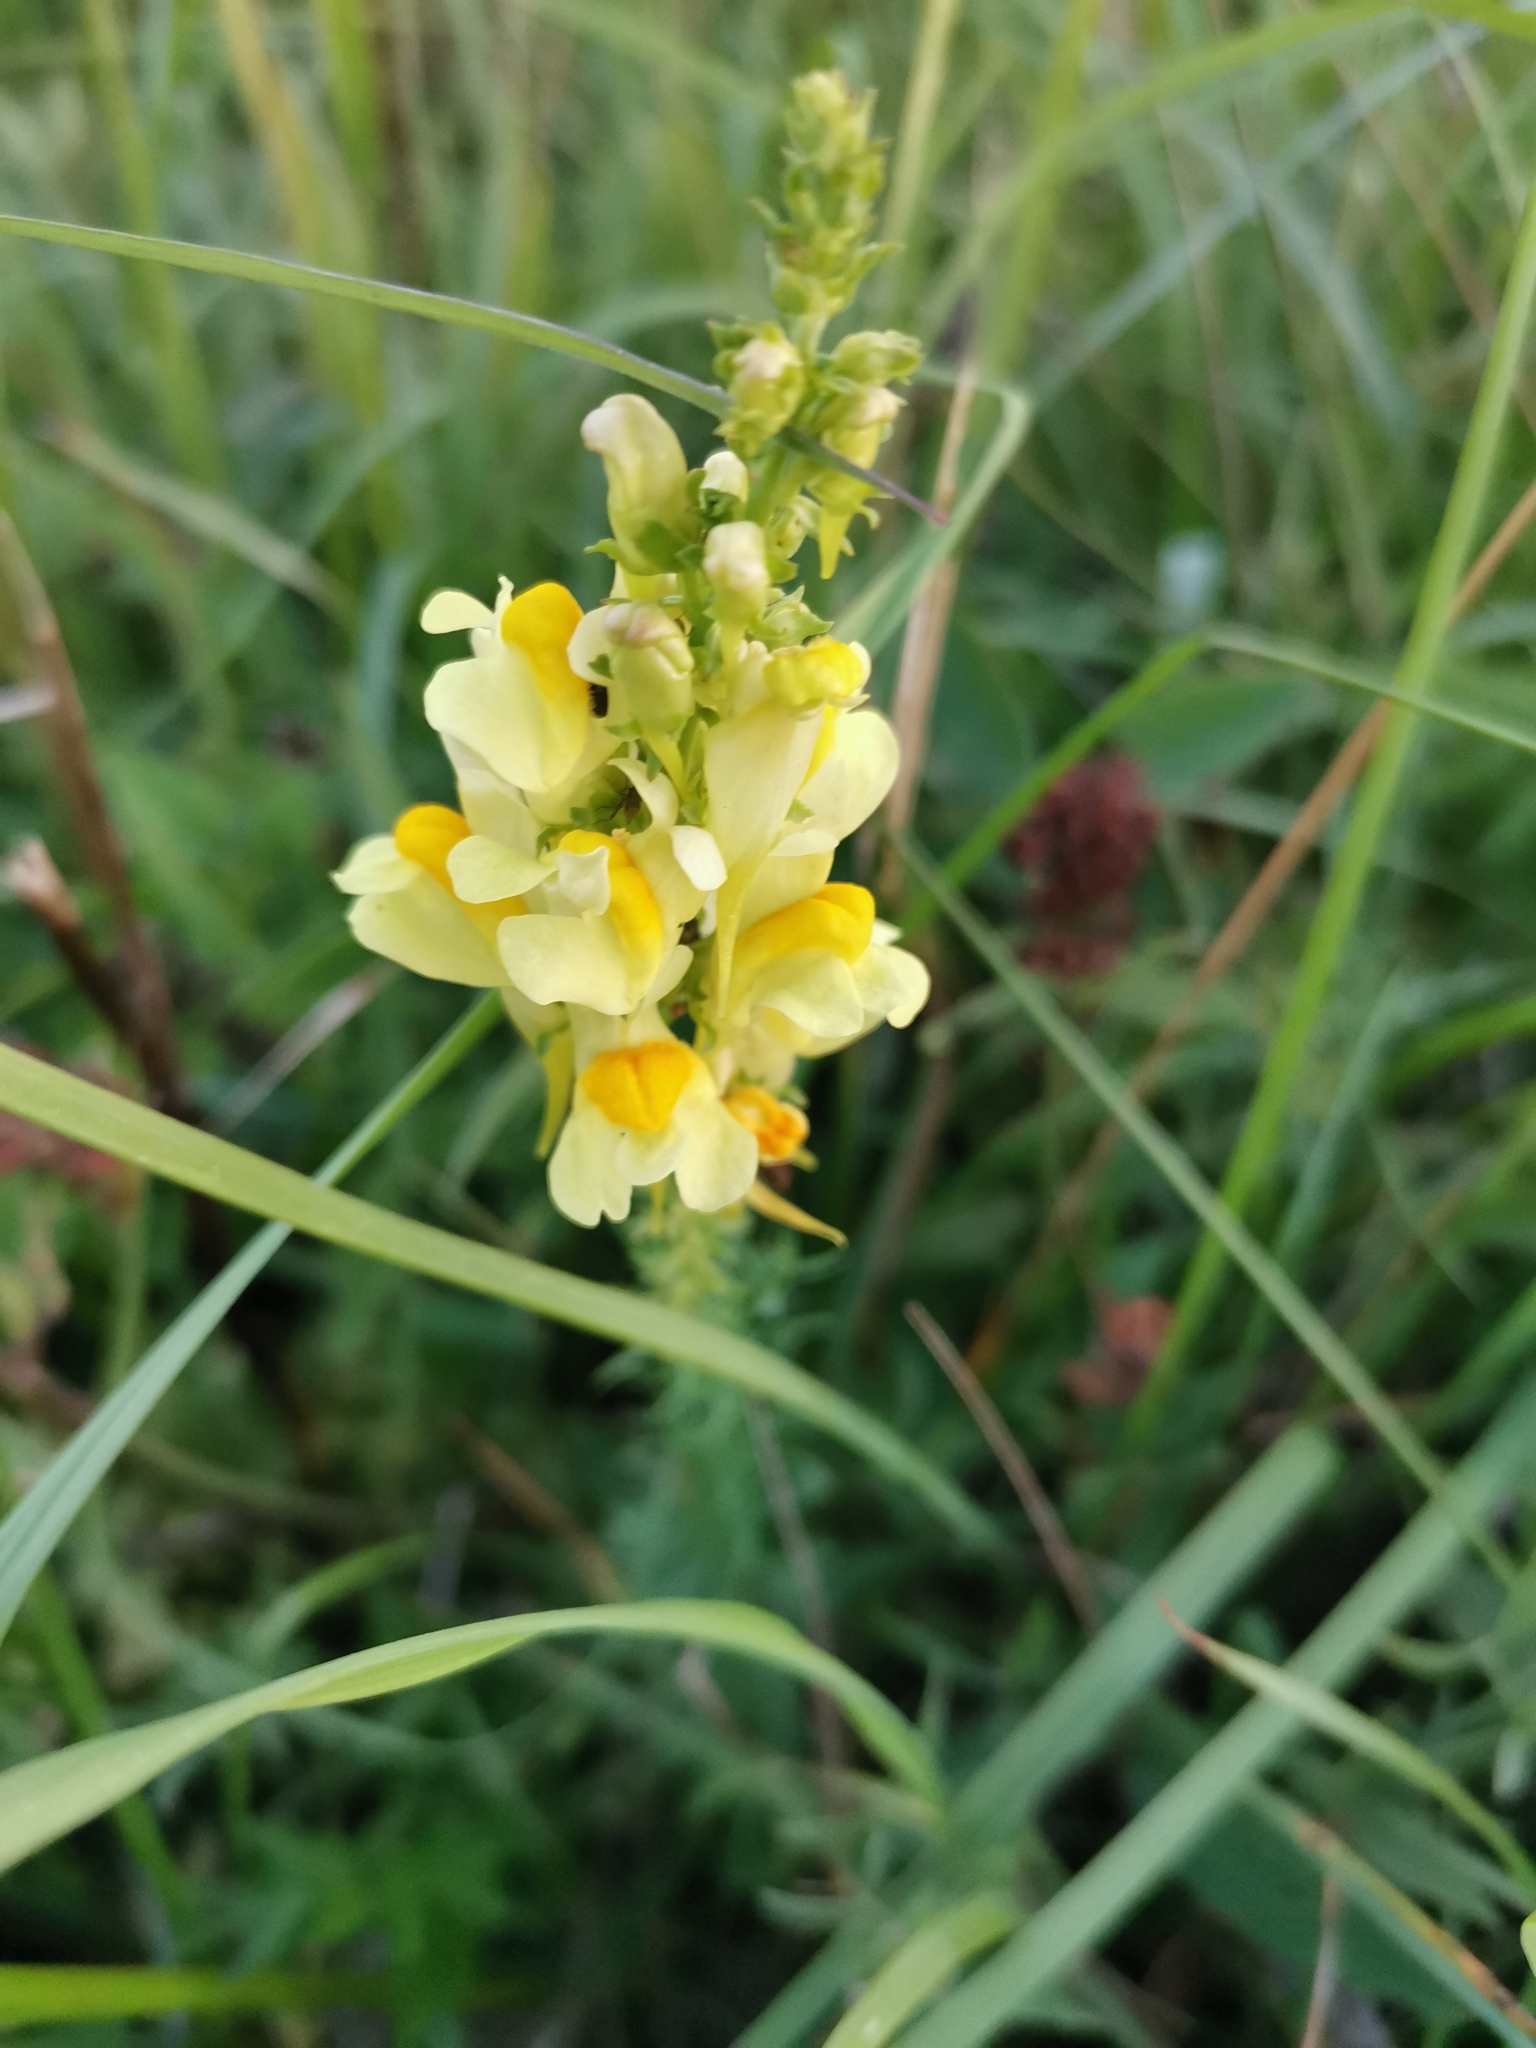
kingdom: Plantae
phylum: Tracheophyta
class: Magnoliopsida
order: Lamiales
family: Plantaginaceae
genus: Linaria
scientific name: Linaria vulgaris
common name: Butter and eggs
